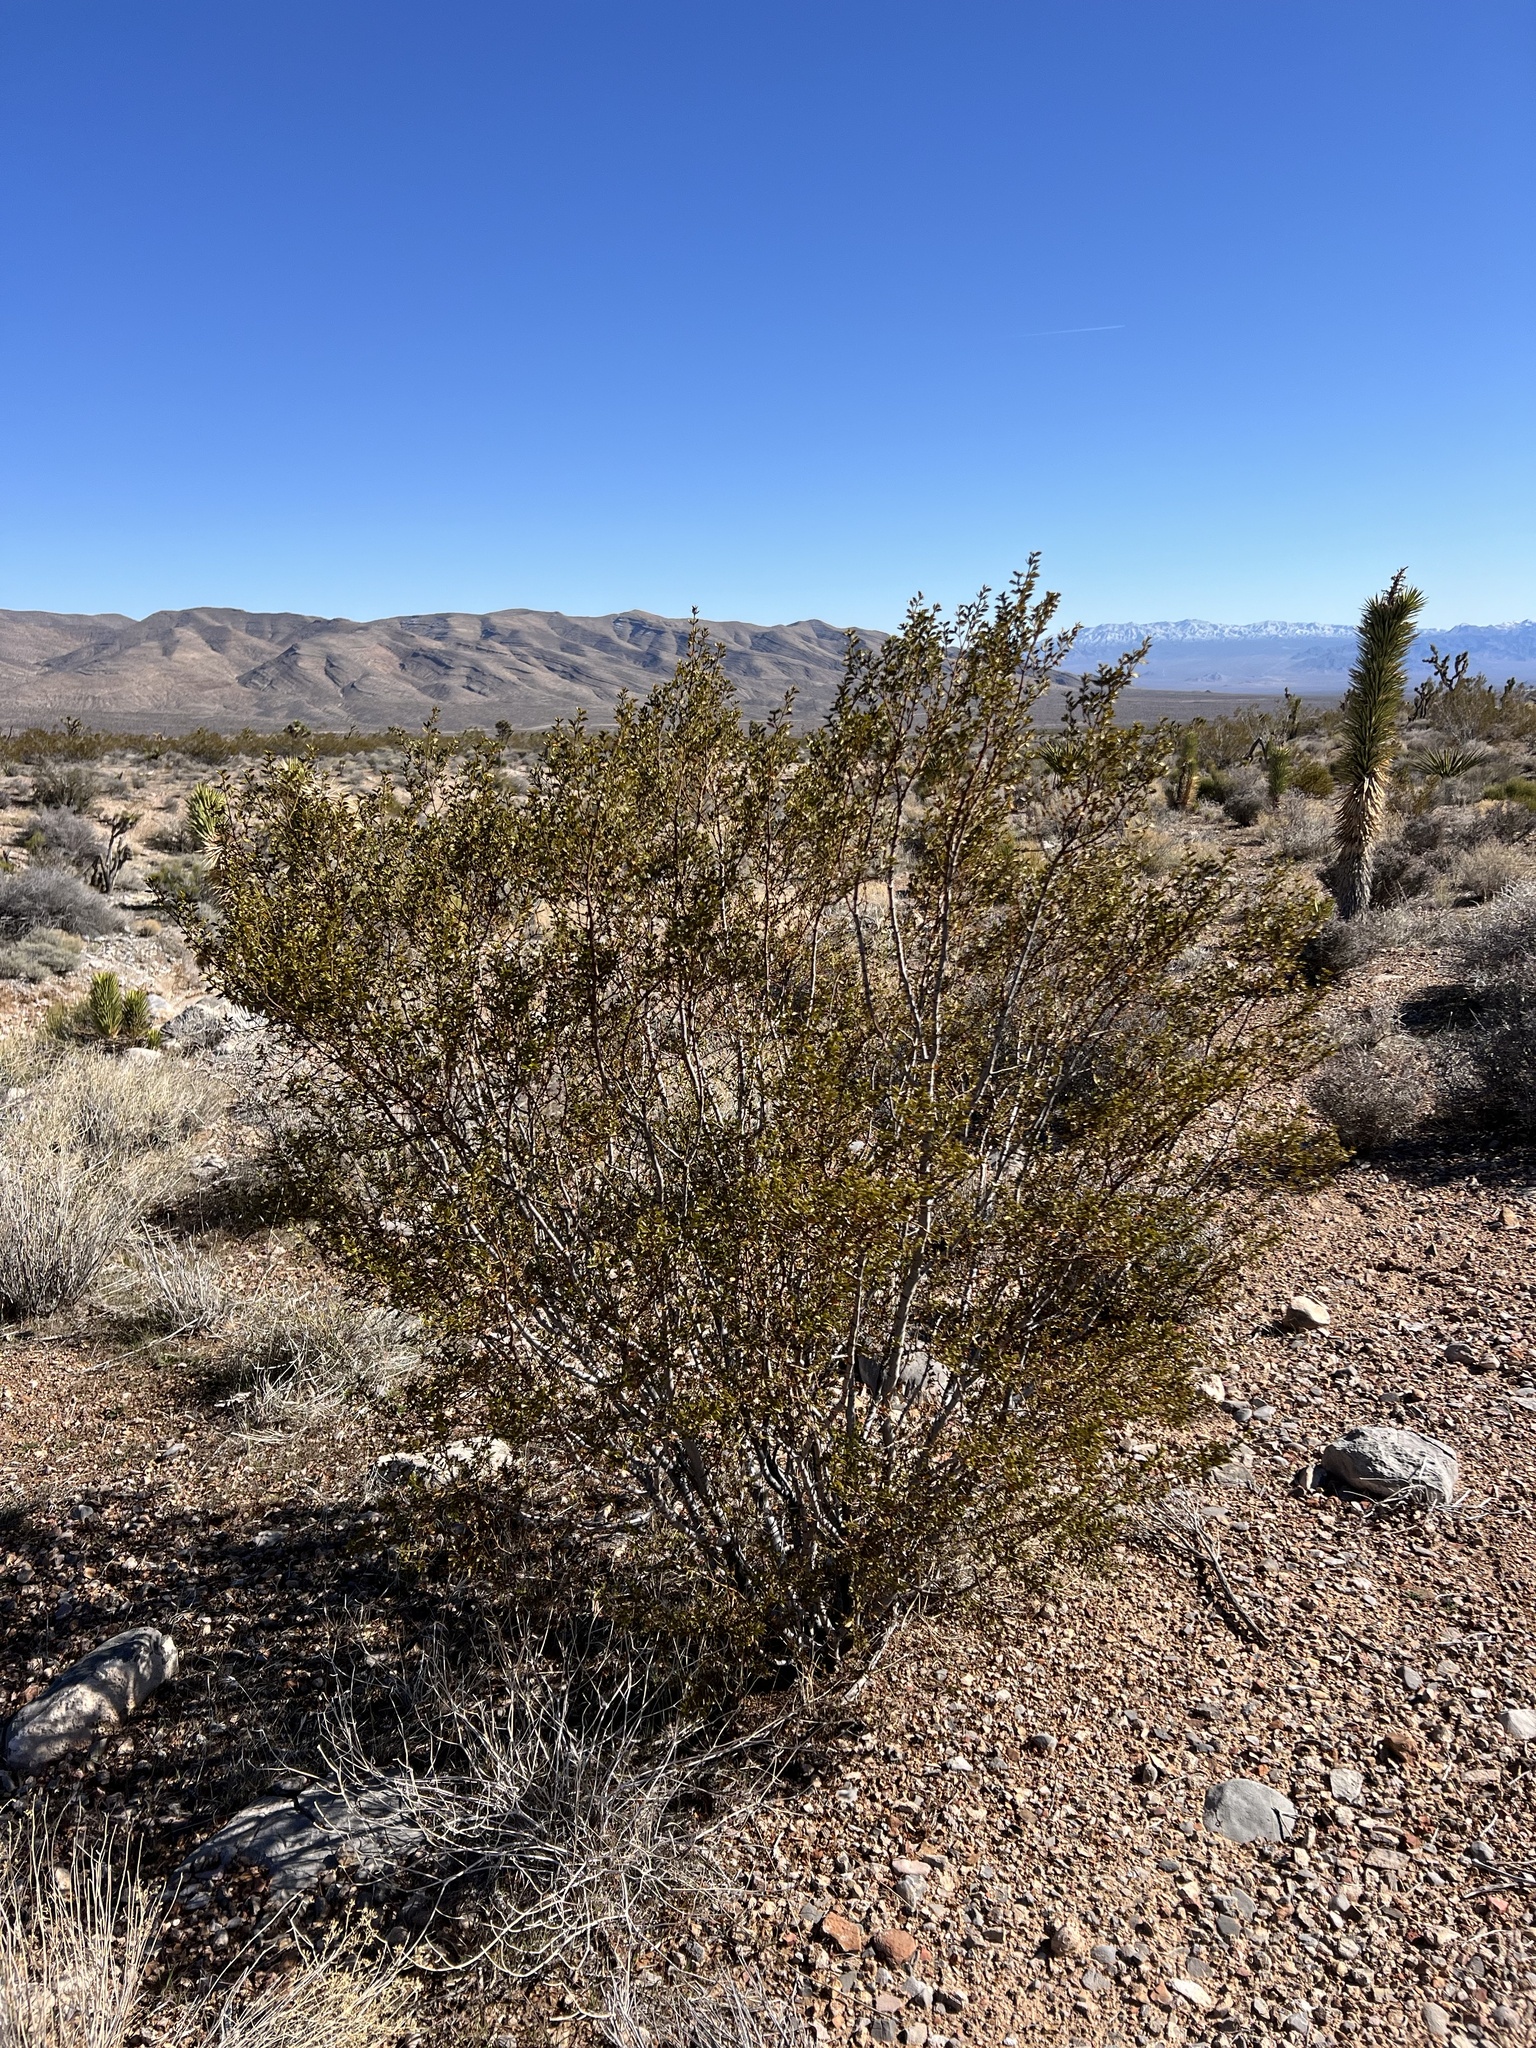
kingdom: Plantae
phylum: Tracheophyta
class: Magnoliopsida
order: Zygophyllales
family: Zygophyllaceae
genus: Larrea
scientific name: Larrea tridentata
